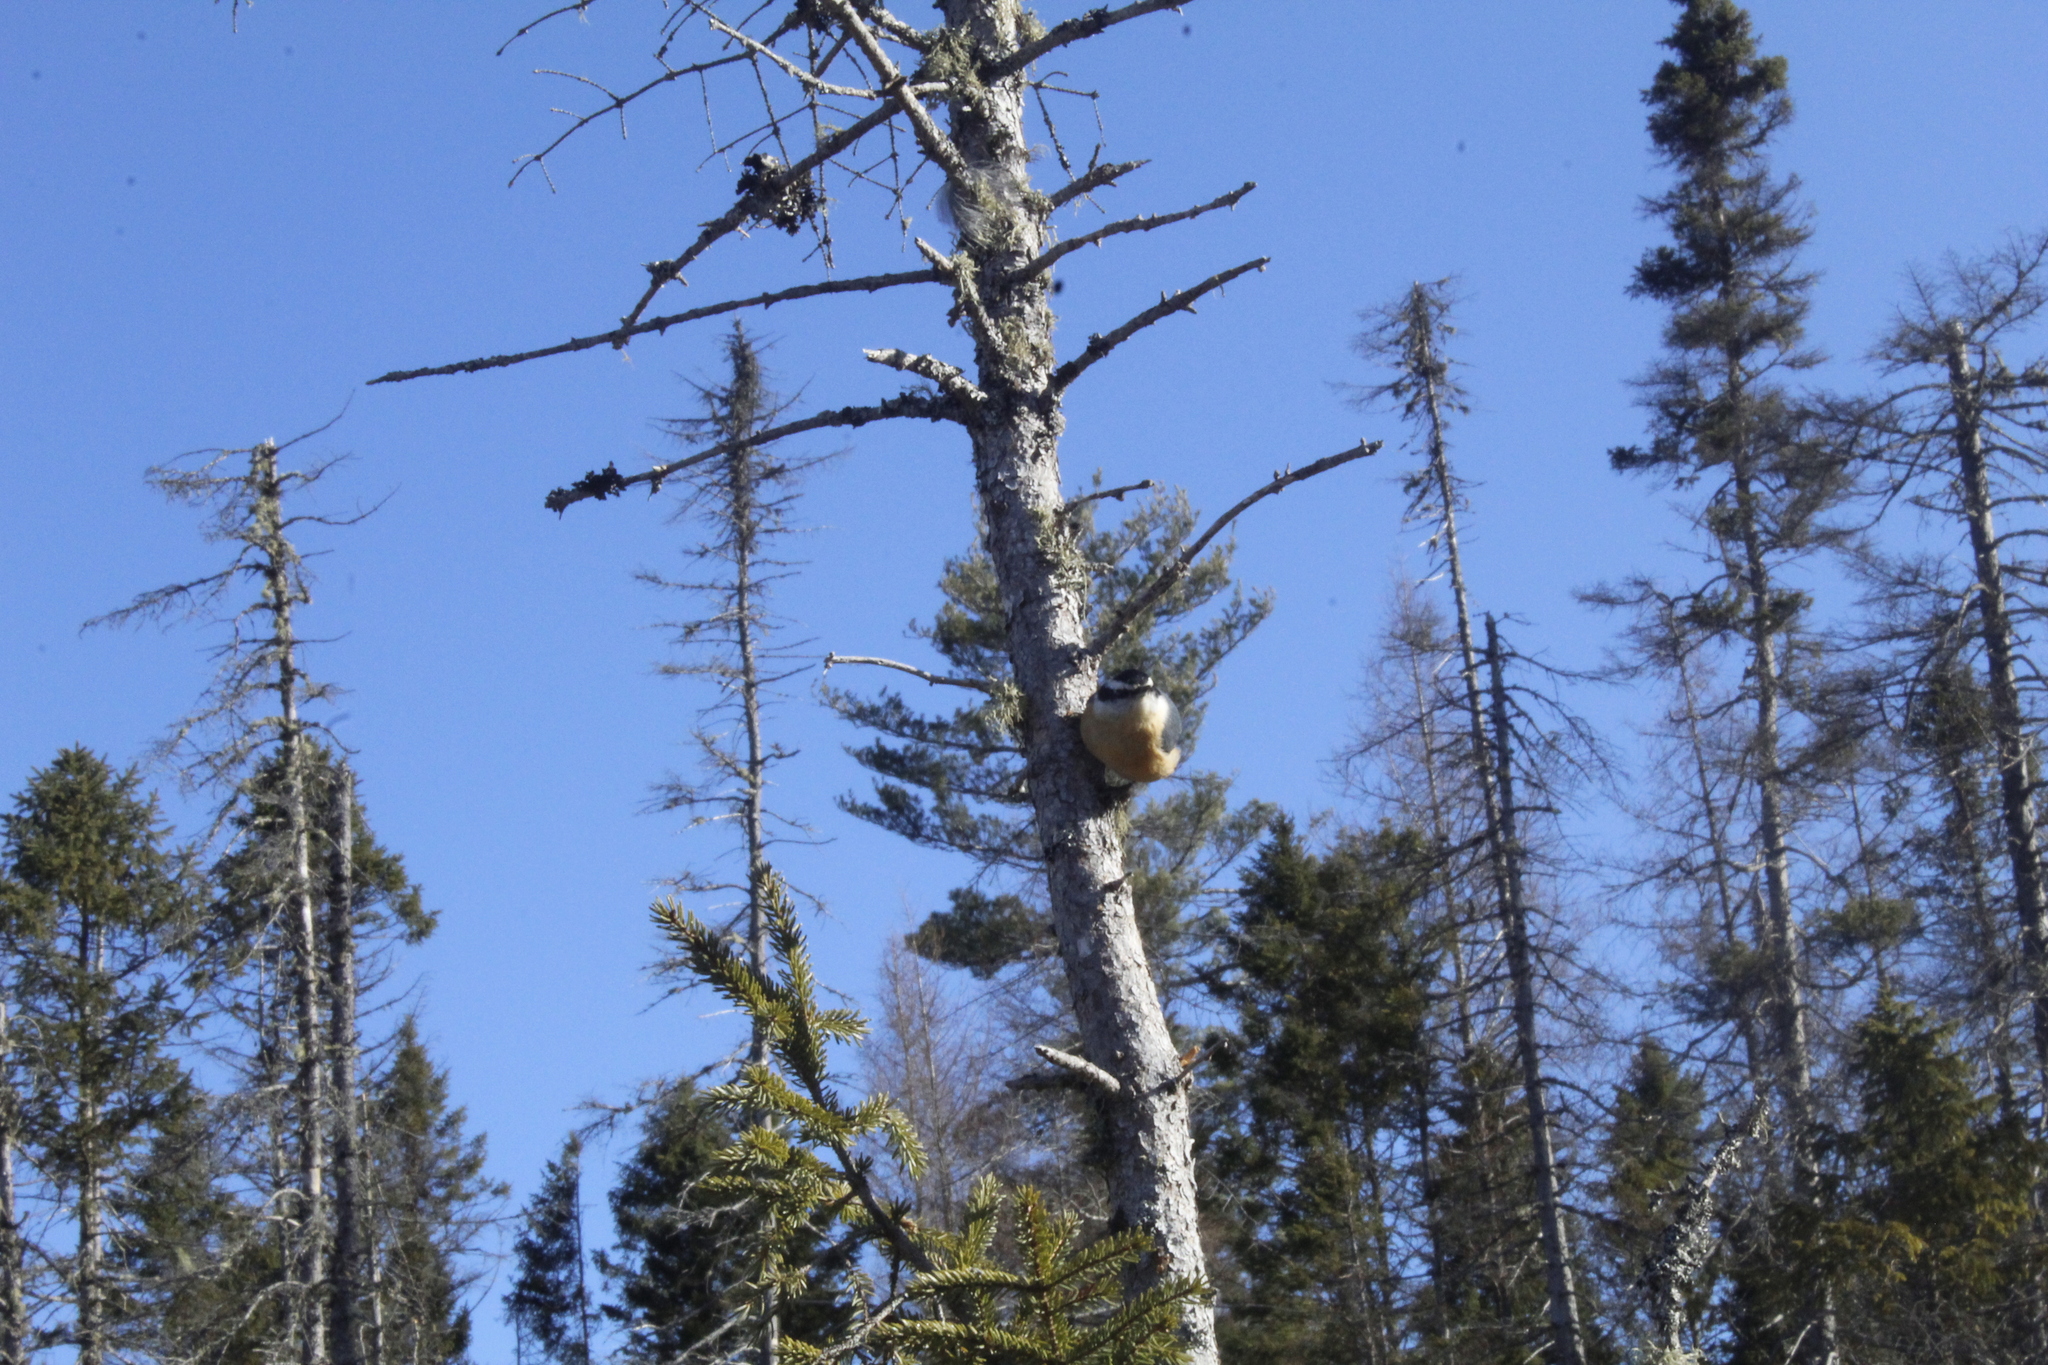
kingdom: Animalia
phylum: Chordata
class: Aves
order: Passeriformes
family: Sittidae
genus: Sitta
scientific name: Sitta canadensis
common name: Red-breasted nuthatch
